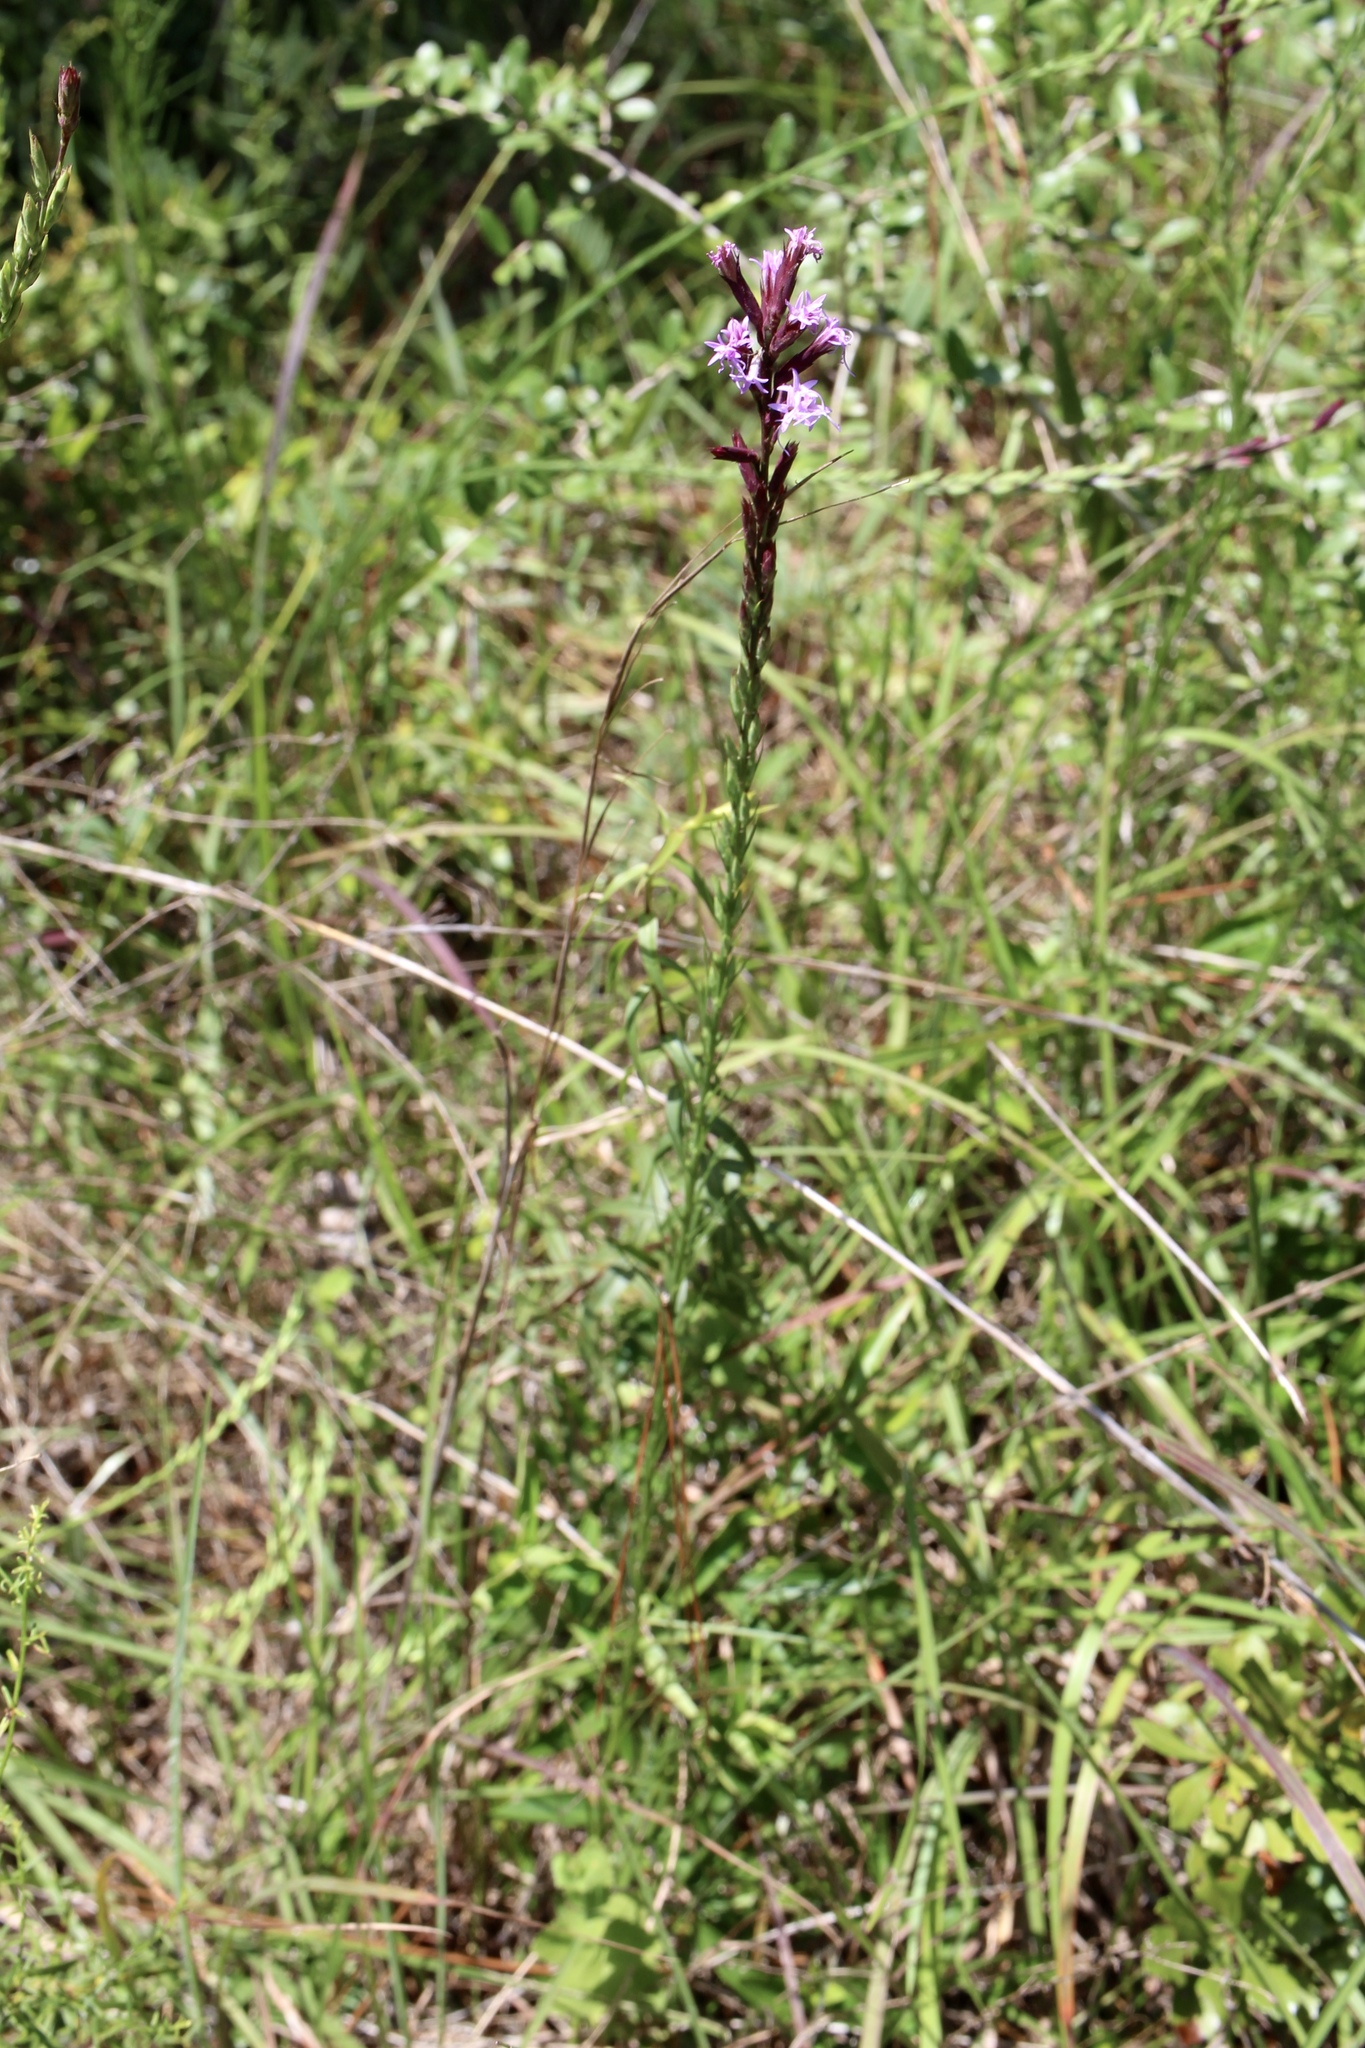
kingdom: Plantae
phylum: Tracheophyta
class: Magnoliopsida
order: Asterales
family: Asteraceae
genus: Liatris
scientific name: Liatris acidota
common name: Gulf coast gayfeather
